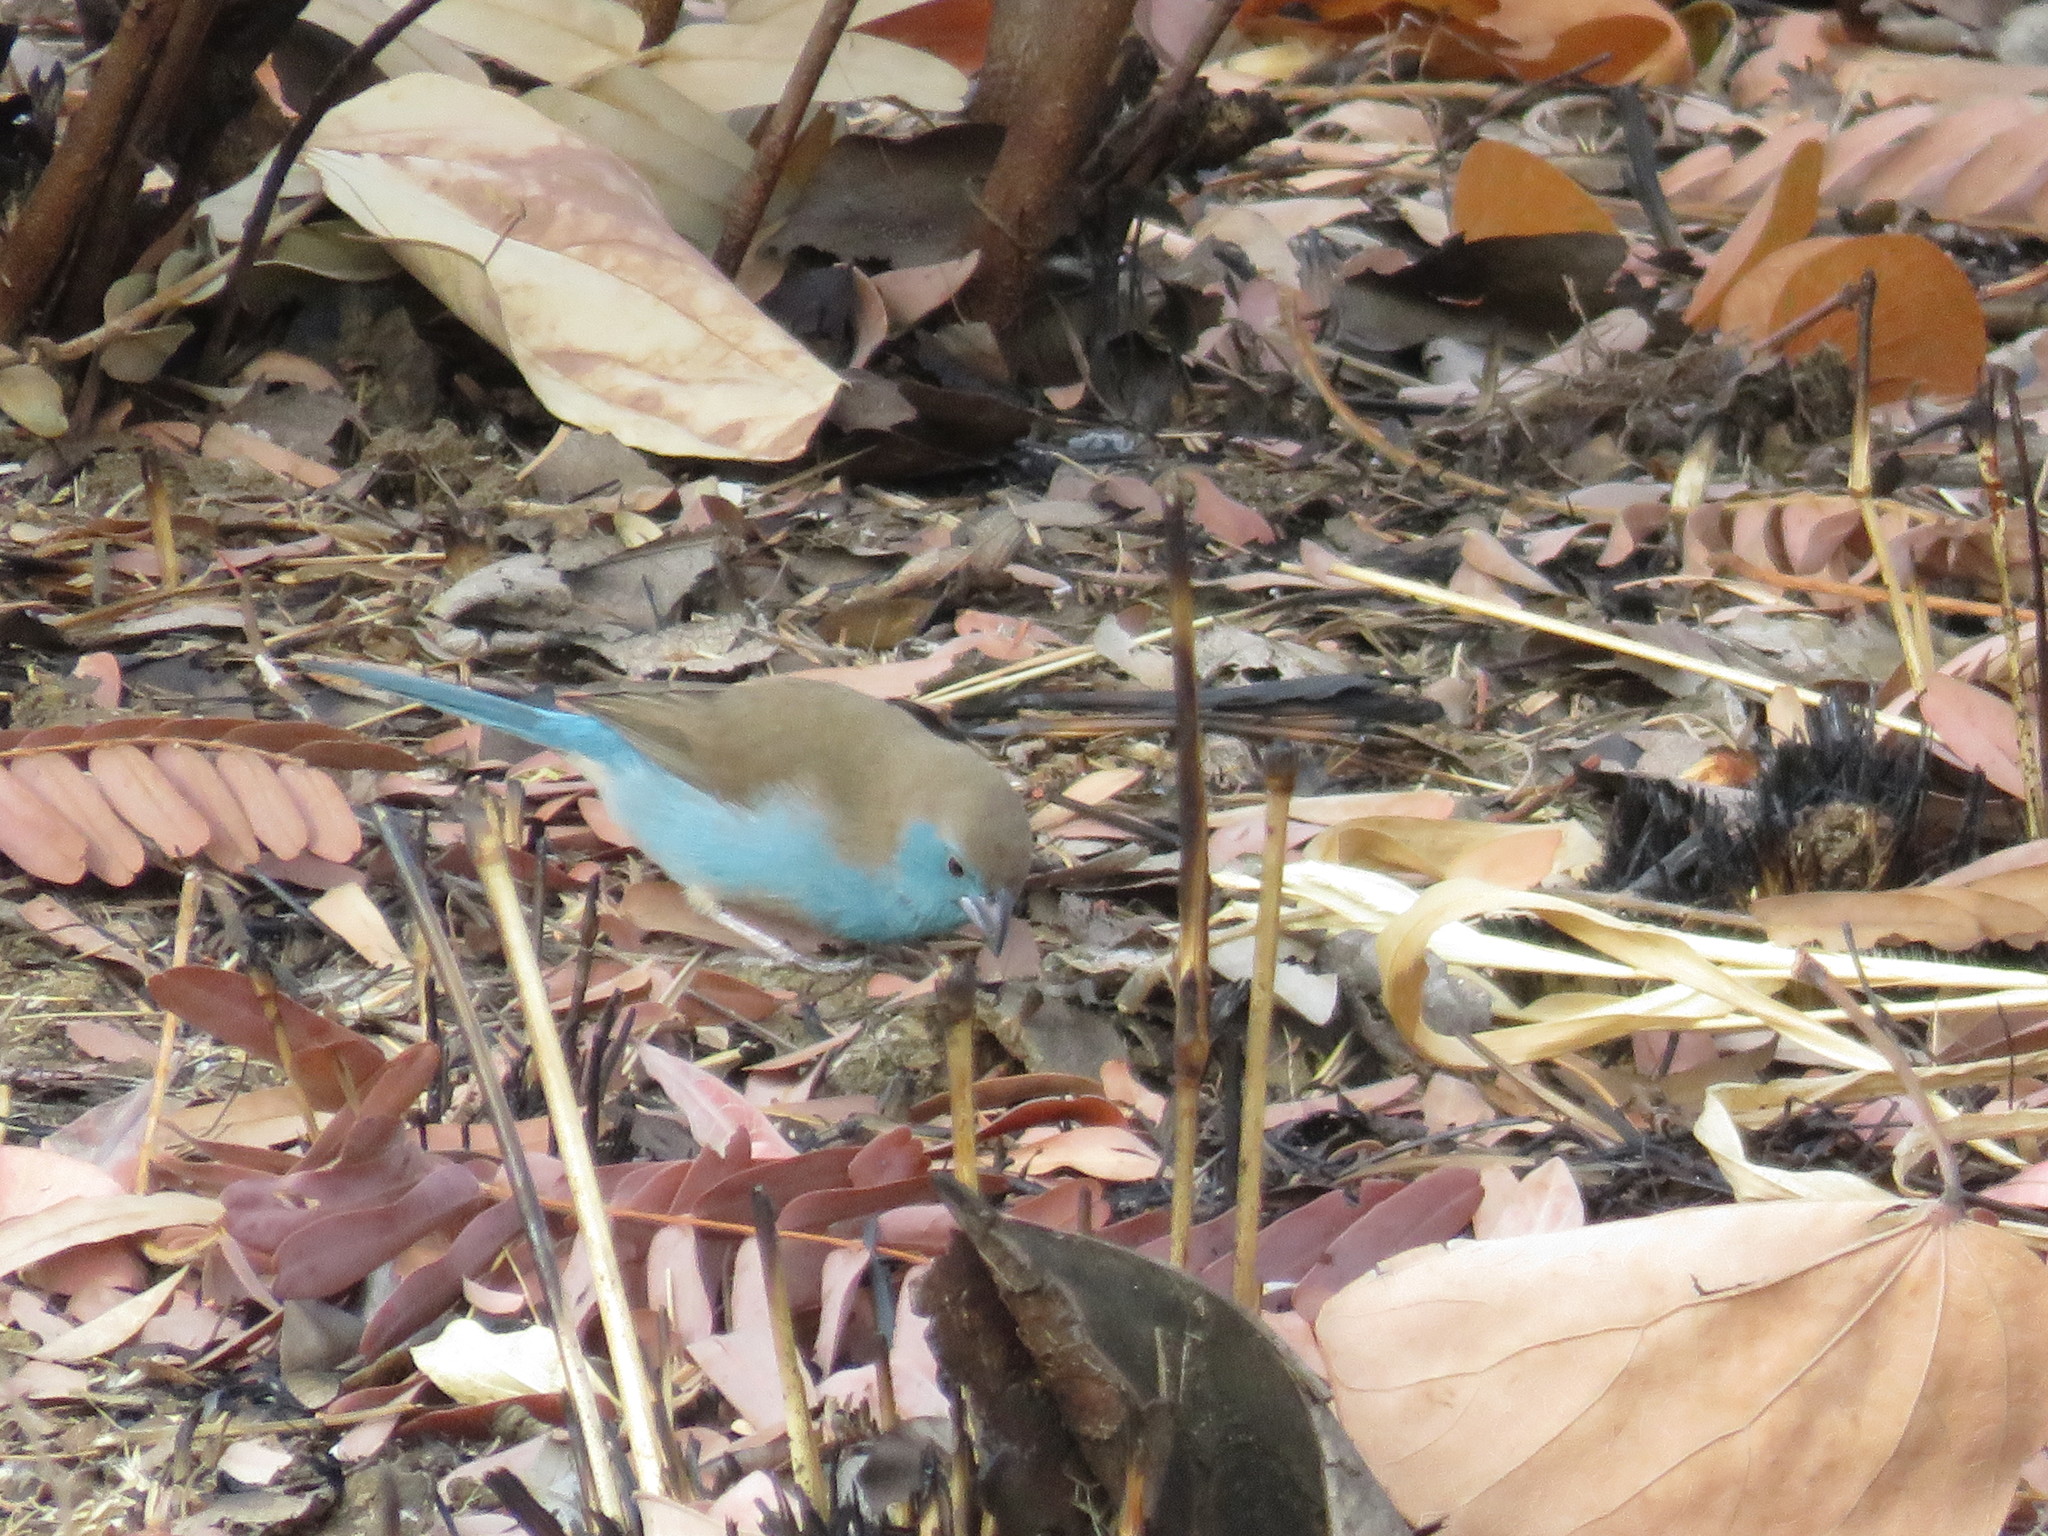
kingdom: Animalia
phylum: Chordata
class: Aves
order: Passeriformes
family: Estrildidae
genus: Uraeginthus
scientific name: Uraeginthus angolensis
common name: Blue waxbill
